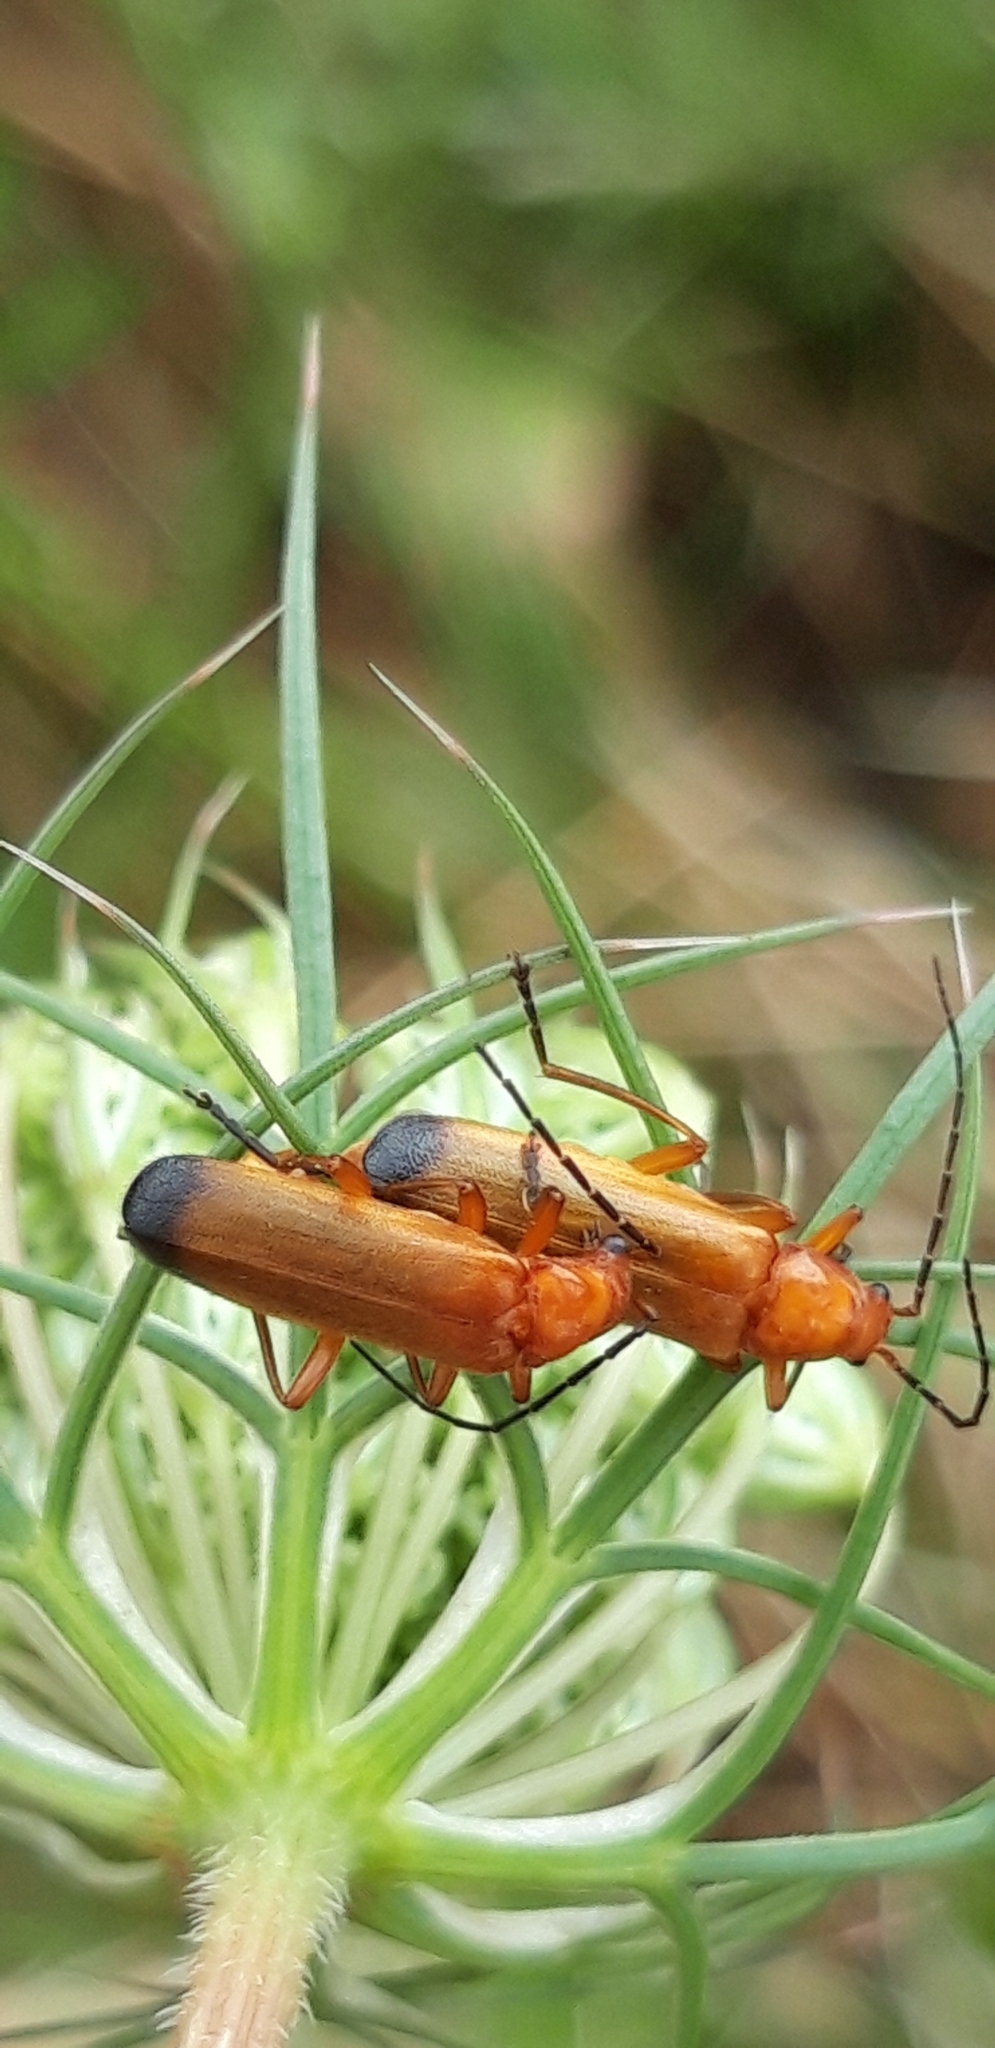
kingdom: Animalia
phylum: Arthropoda
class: Insecta
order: Coleoptera
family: Cantharidae
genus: Rhagonycha
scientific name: Rhagonycha fulva
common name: Common red soldier beetle
